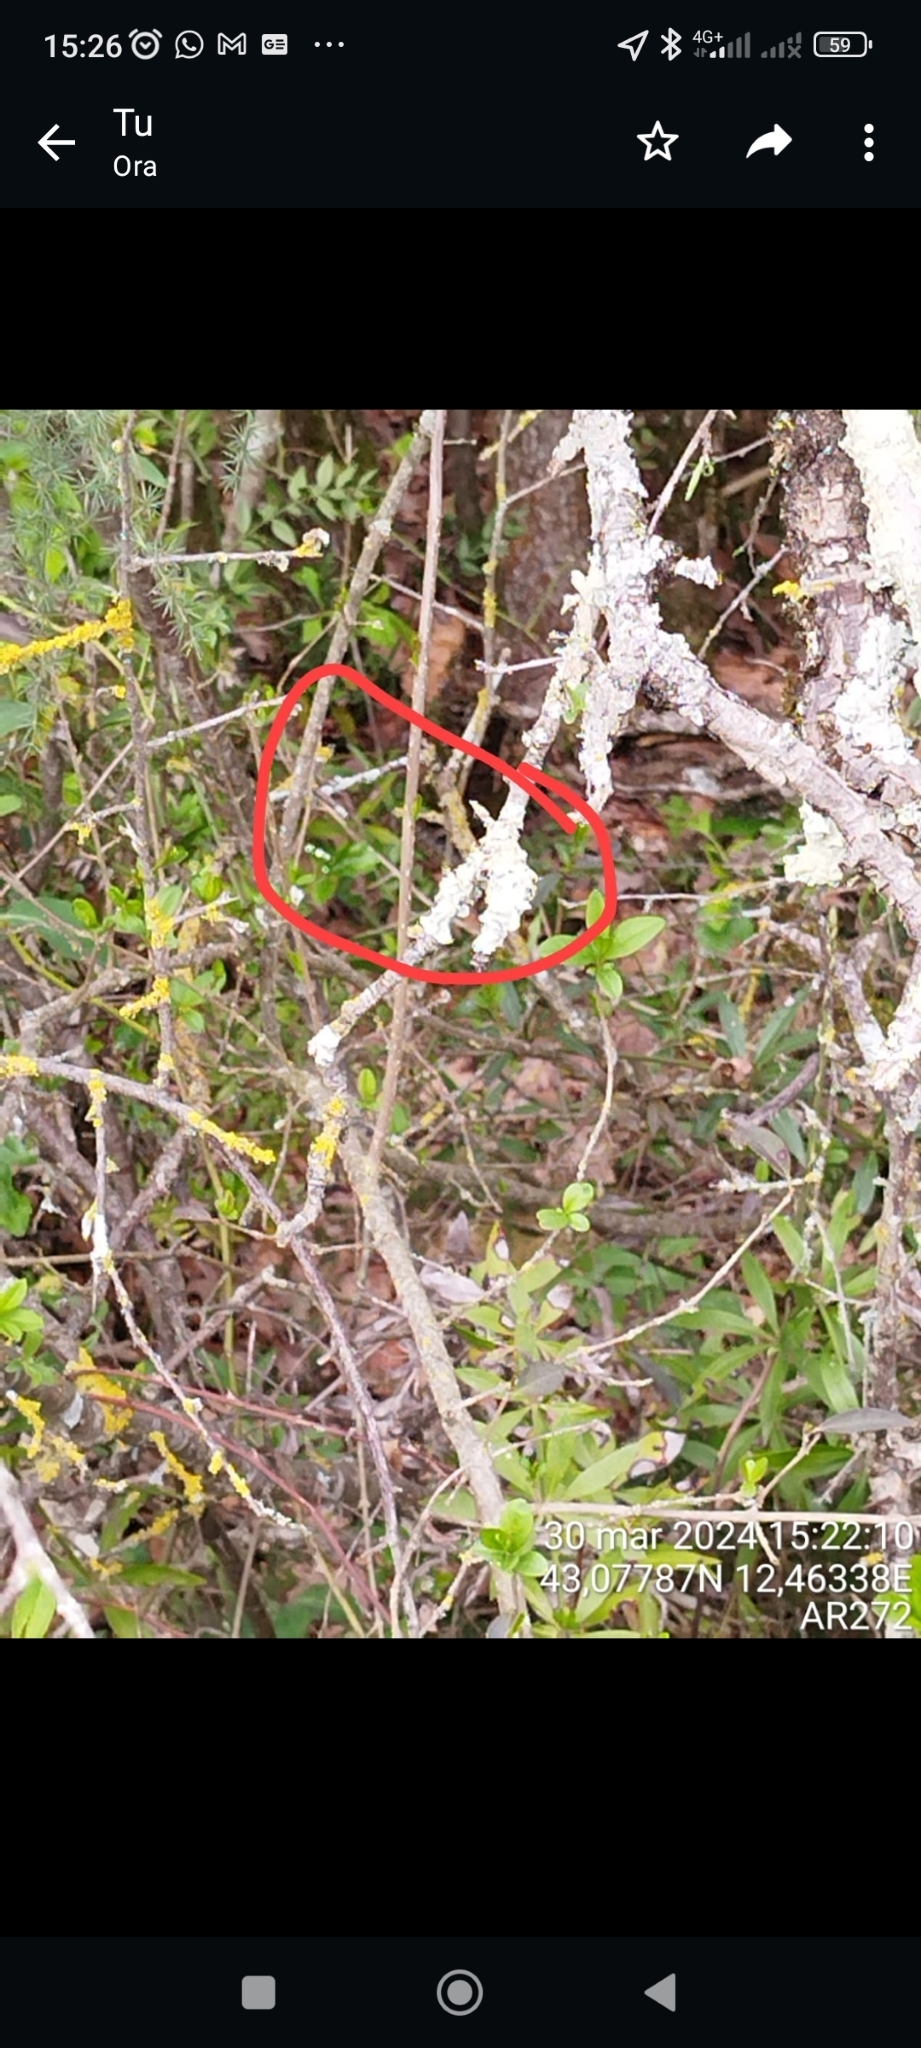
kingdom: Animalia
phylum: Chordata
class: Squamata
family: Colubridae
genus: Hierophis
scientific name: Hierophis viridiflavus
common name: Green whip snake
